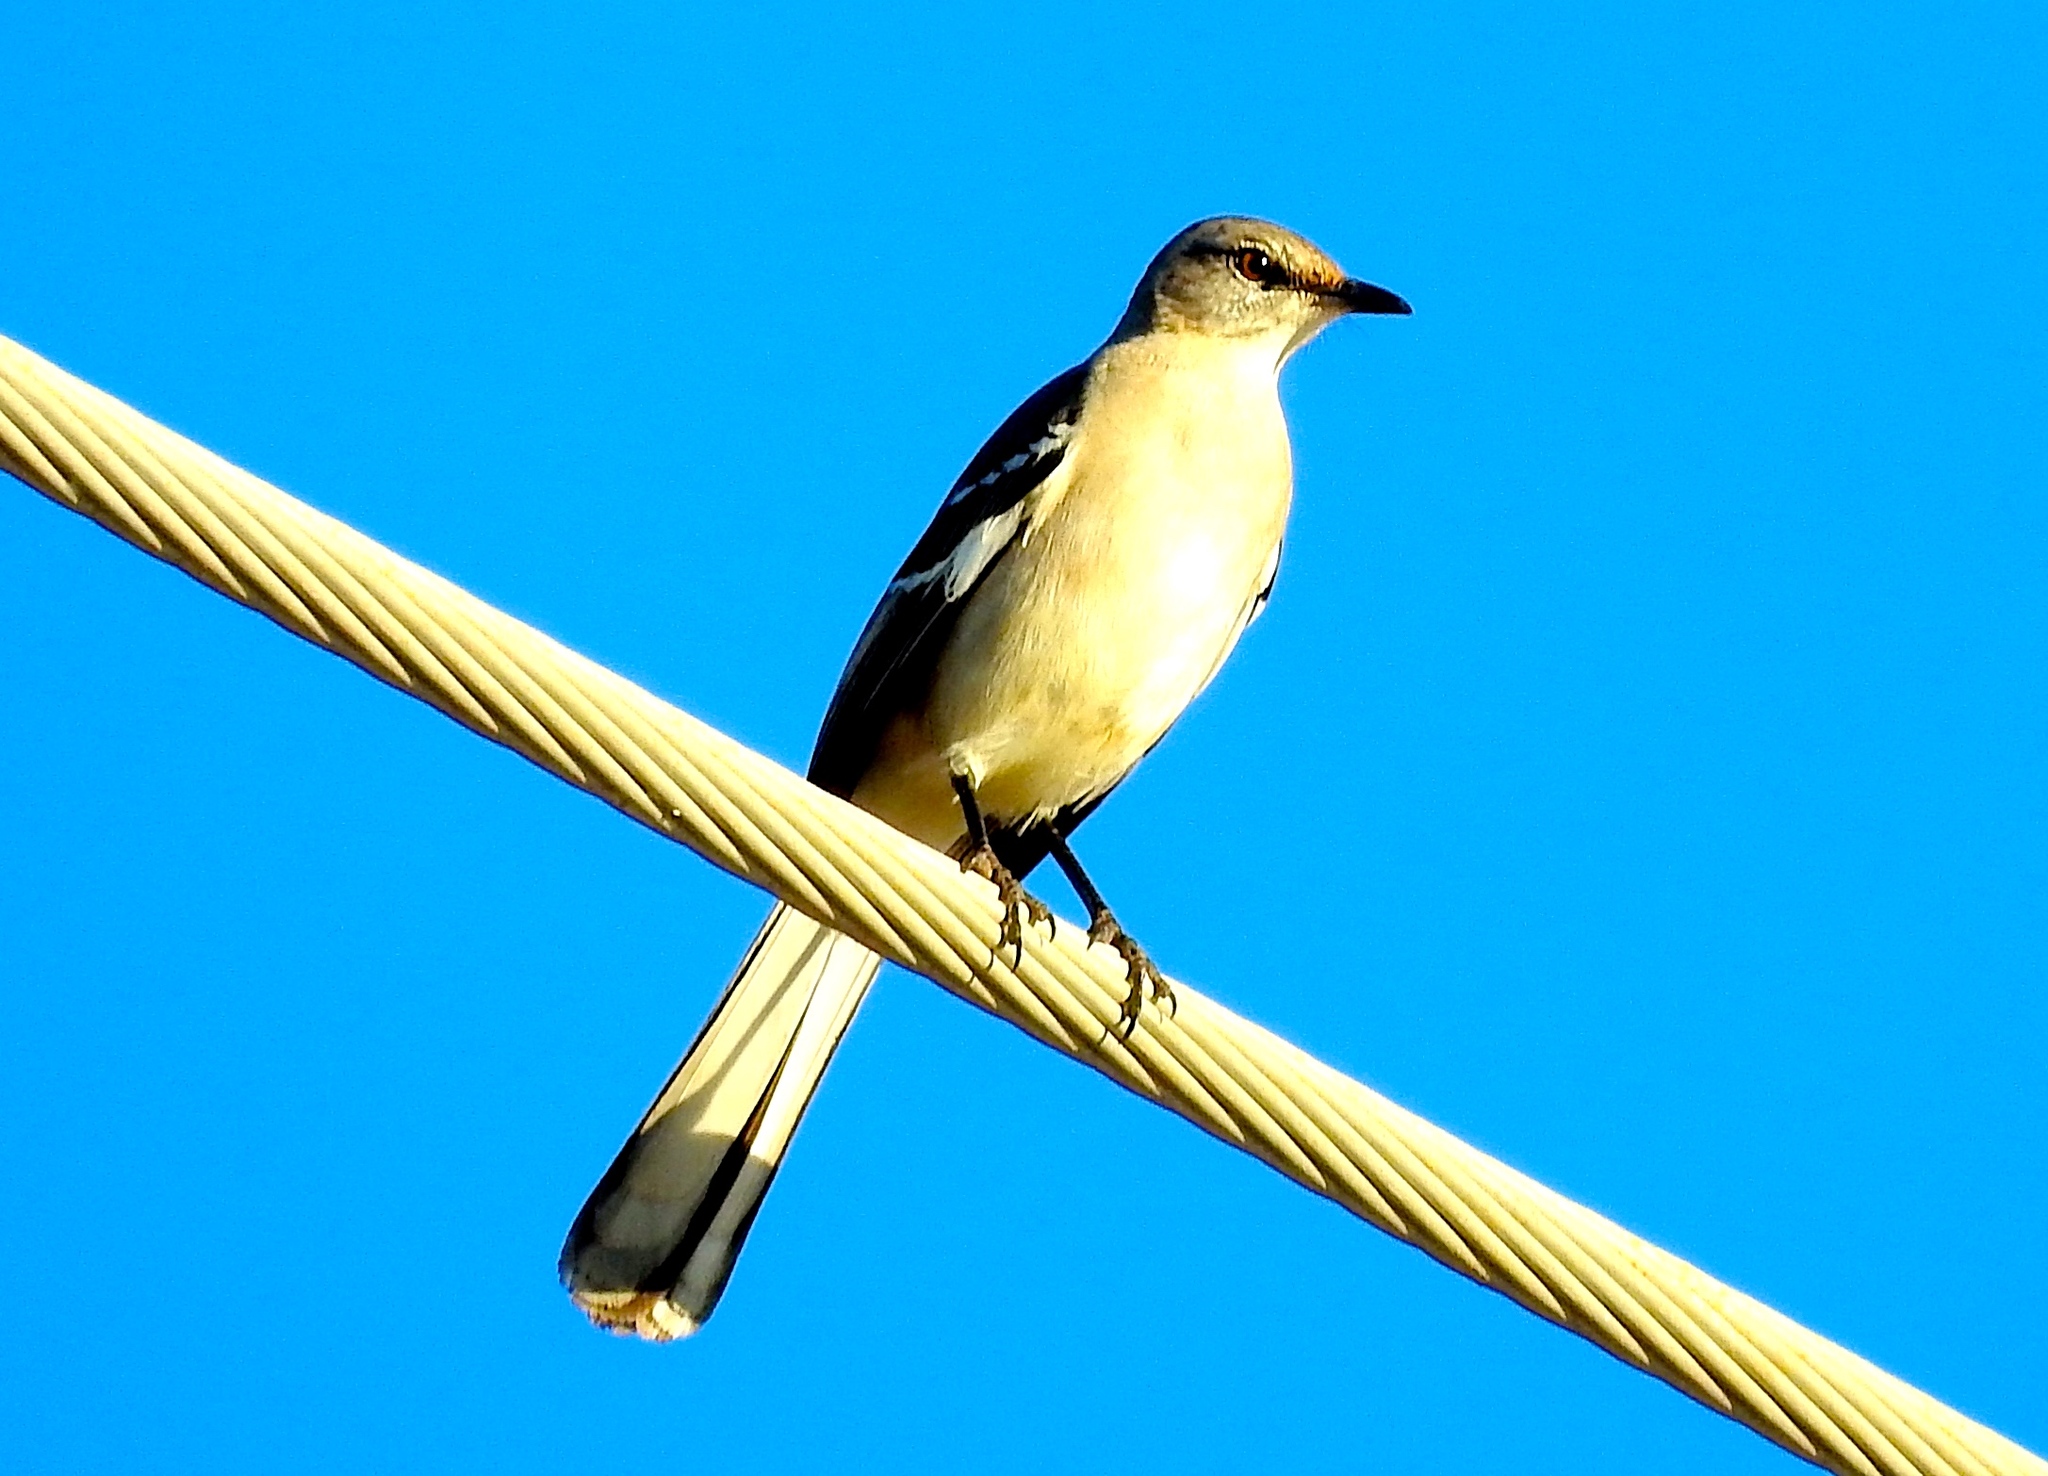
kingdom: Animalia
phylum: Chordata
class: Aves
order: Passeriformes
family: Mimidae
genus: Mimus
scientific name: Mimus polyglottos
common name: Northern mockingbird
